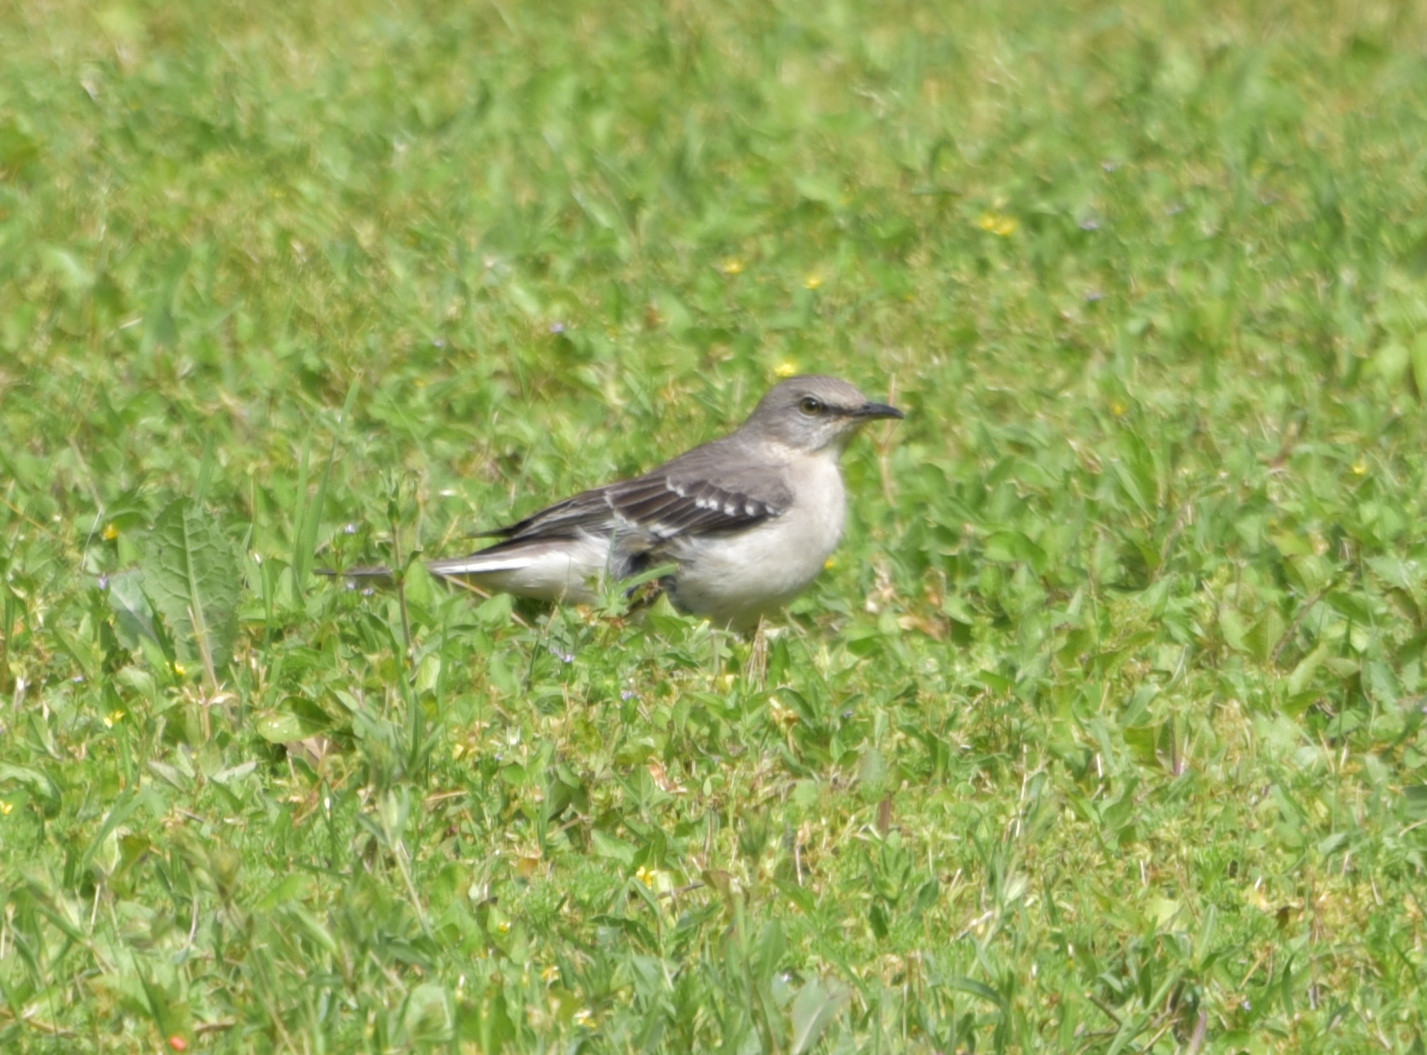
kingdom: Animalia
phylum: Chordata
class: Aves
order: Passeriformes
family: Mimidae
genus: Mimus
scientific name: Mimus polyglottos
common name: Northern mockingbird
